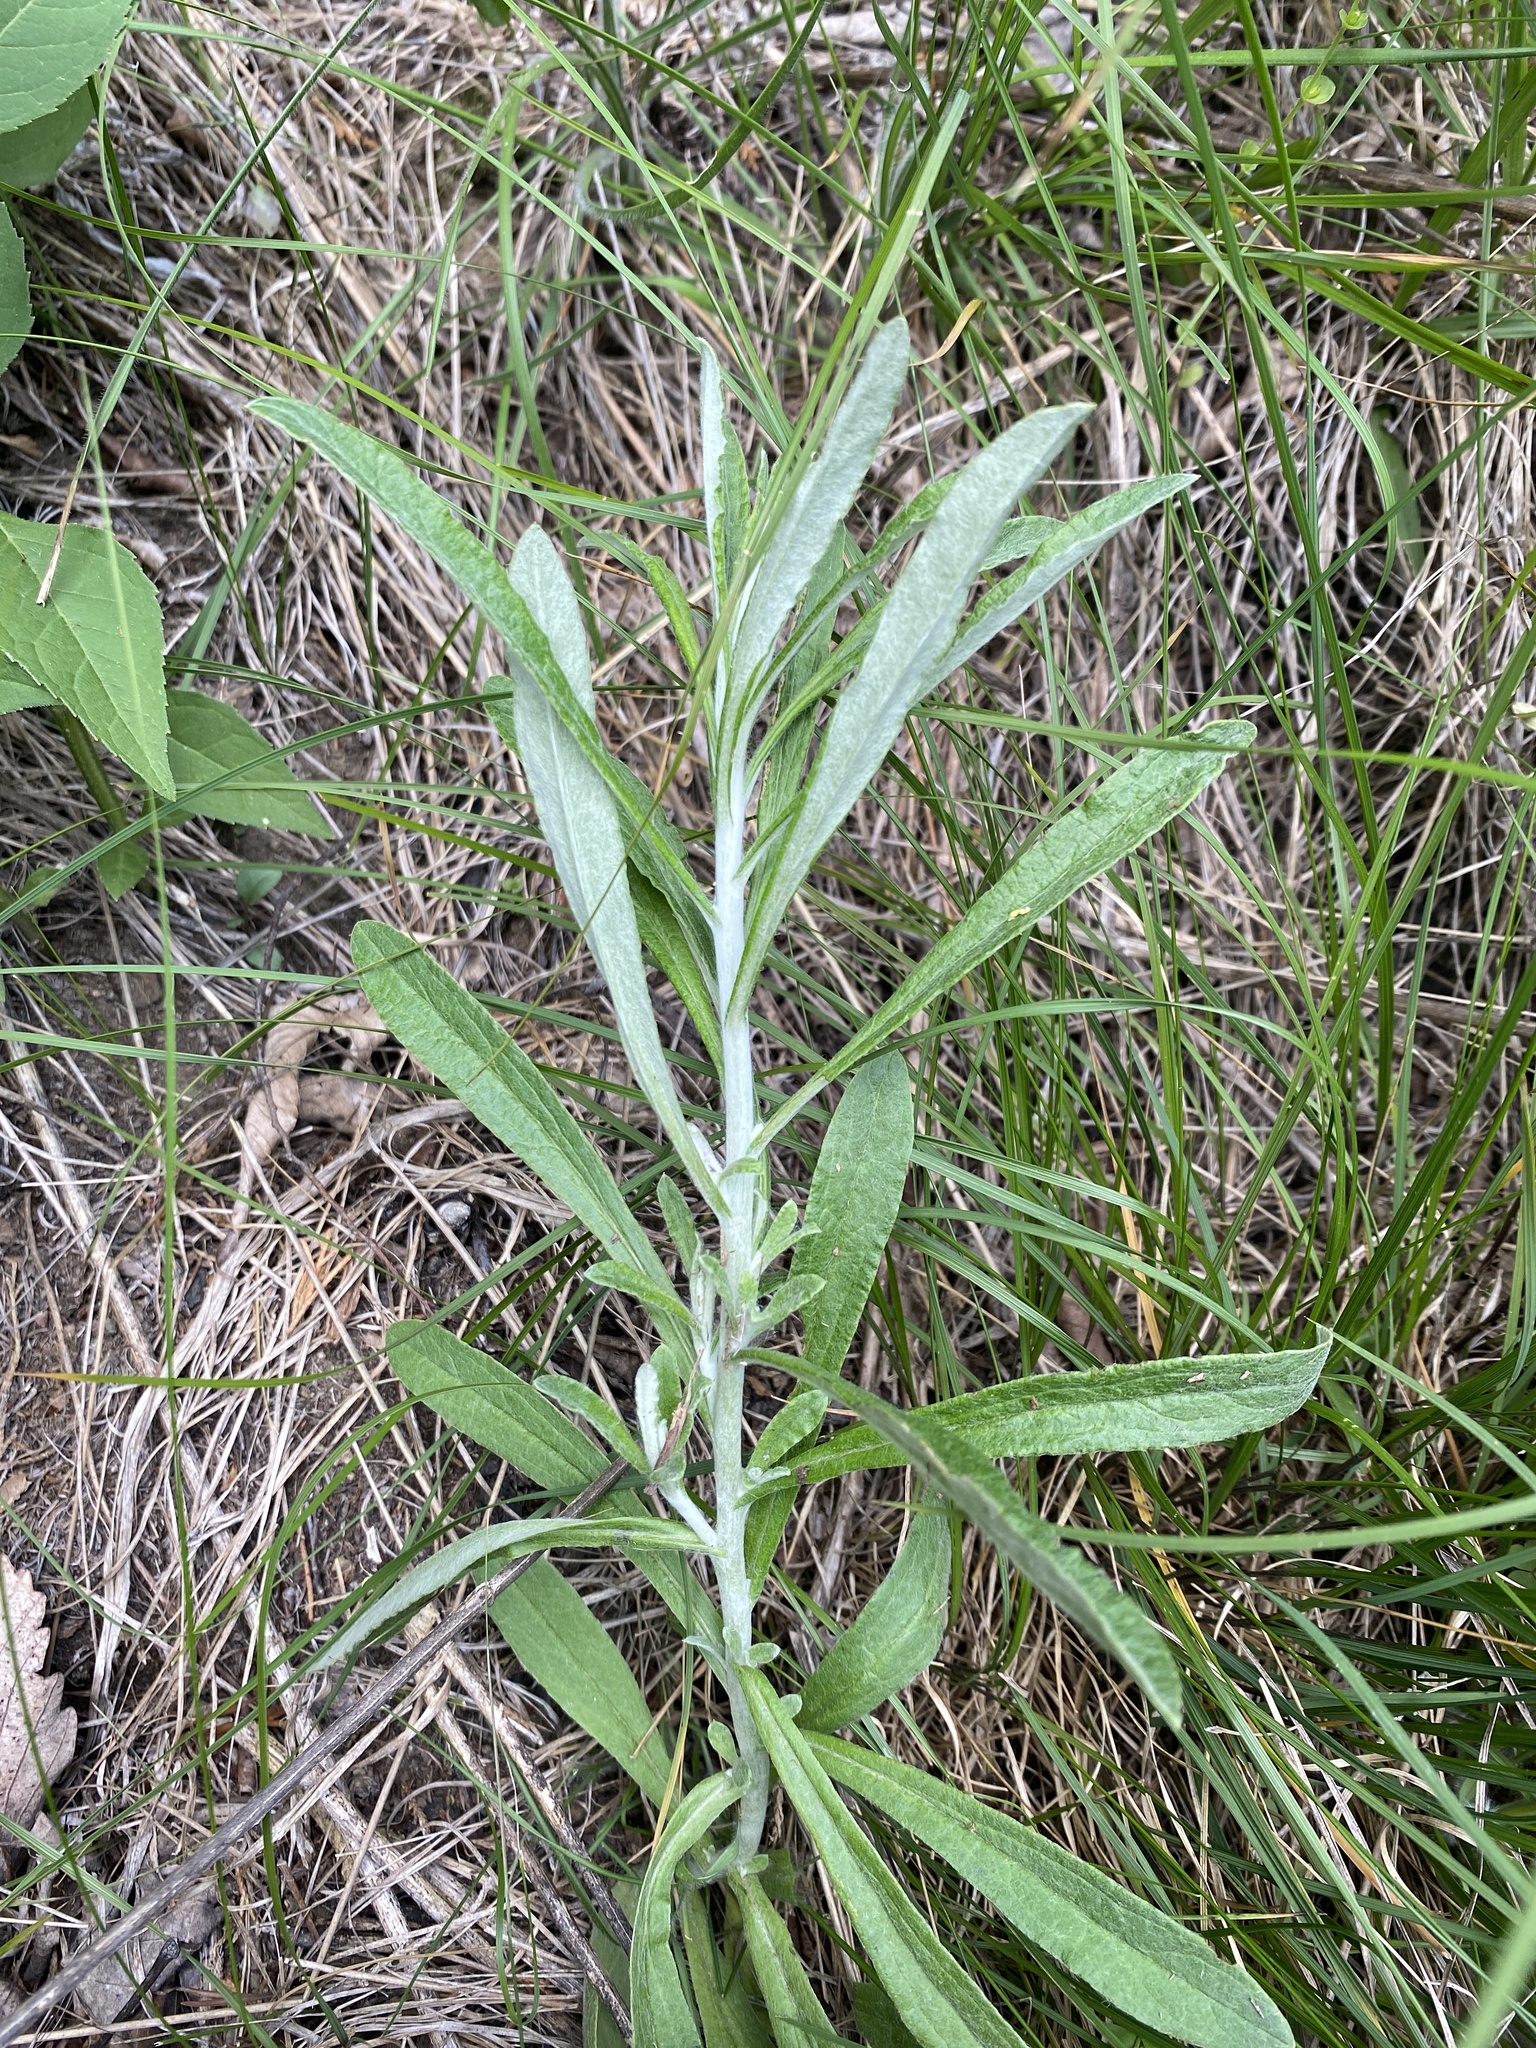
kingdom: Plantae
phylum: Tracheophyta
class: Magnoliopsida
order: Asterales
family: Asteraceae
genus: Pseudognaphalium
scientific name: Pseudognaphalium obtusifolium
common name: Eastern rabbit-tobacco
